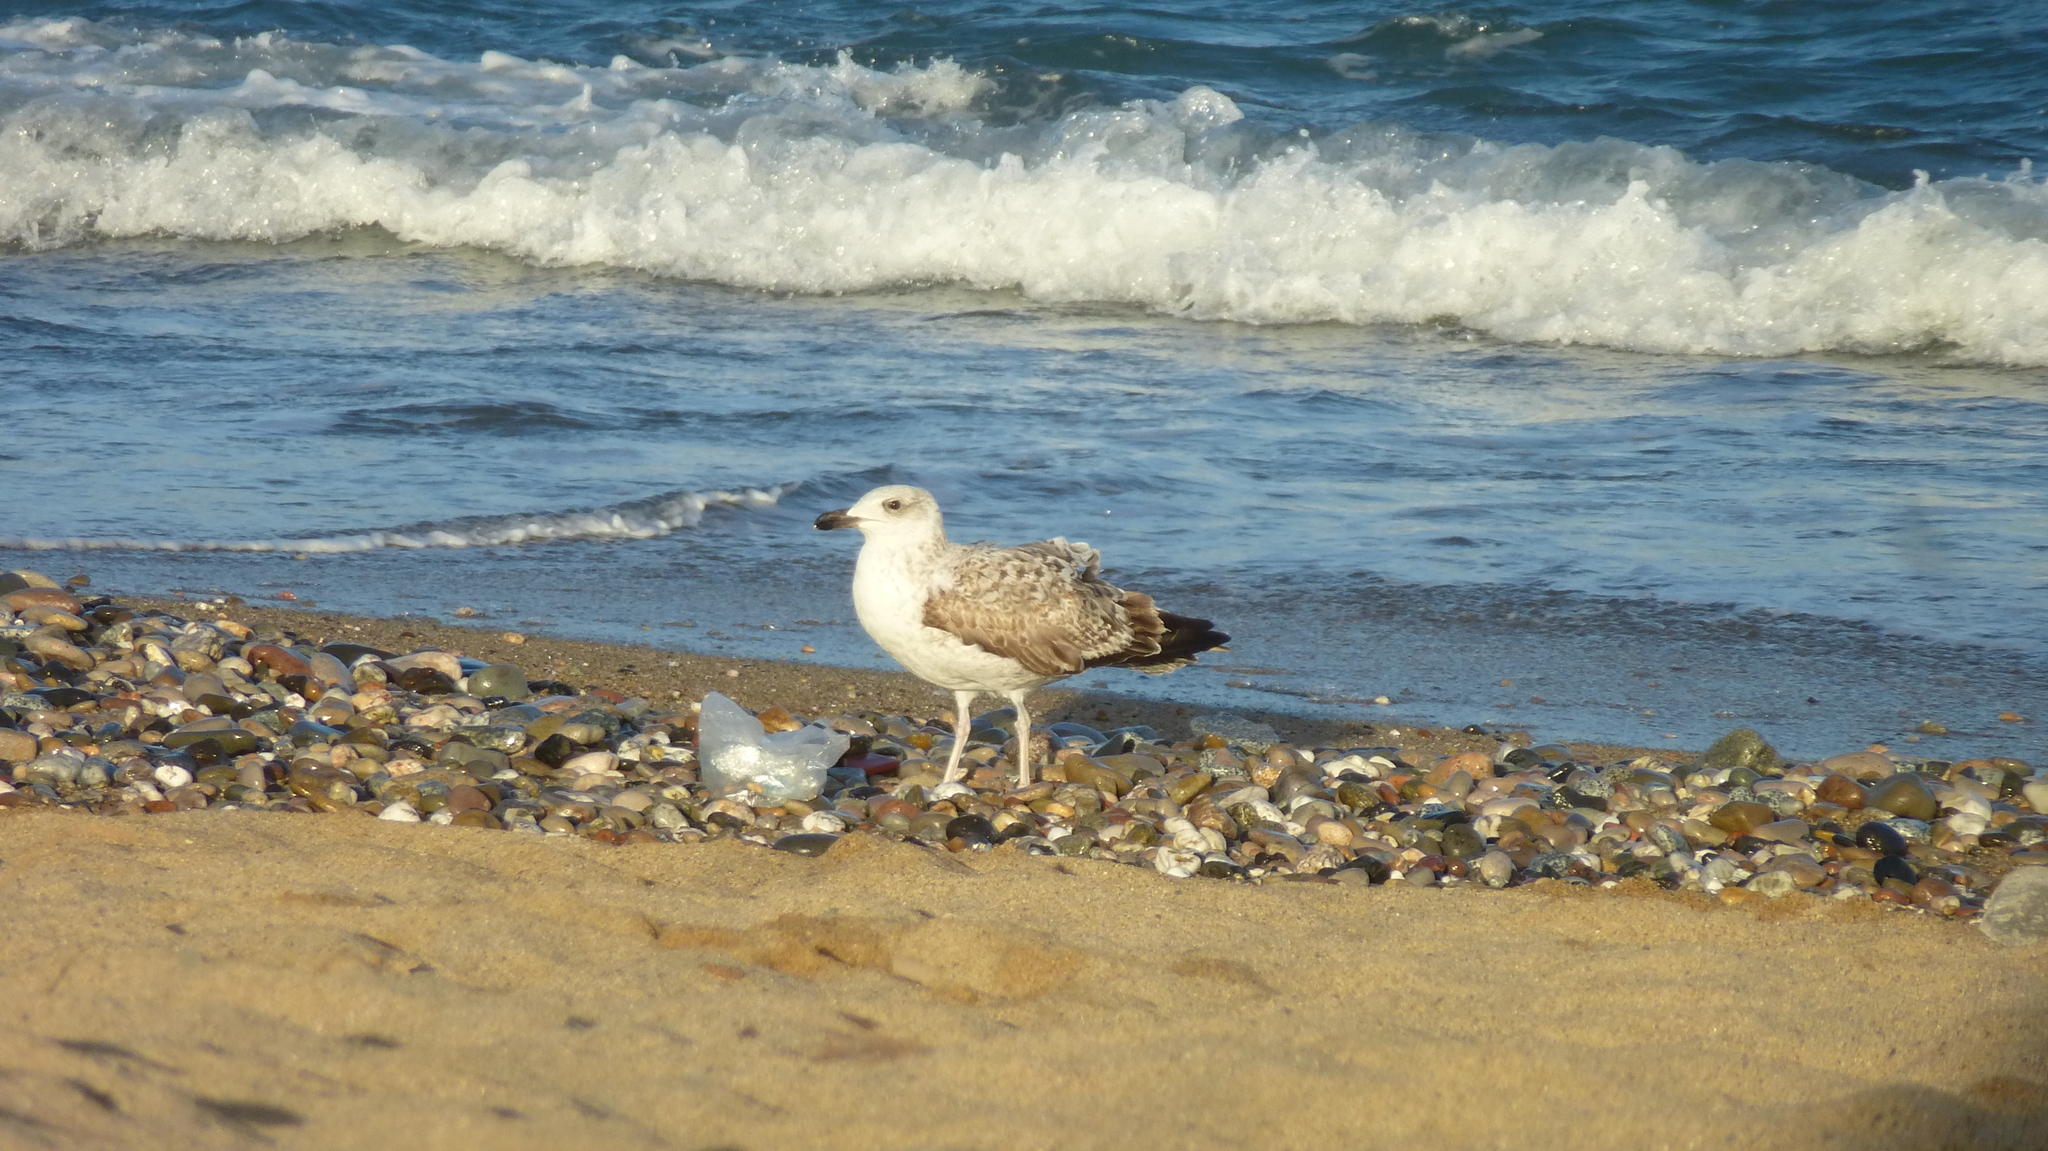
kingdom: Animalia
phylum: Chordata
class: Aves
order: Charadriiformes
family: Laridae
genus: Larus
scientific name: Larus michahellis
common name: Yellow-legged gull
